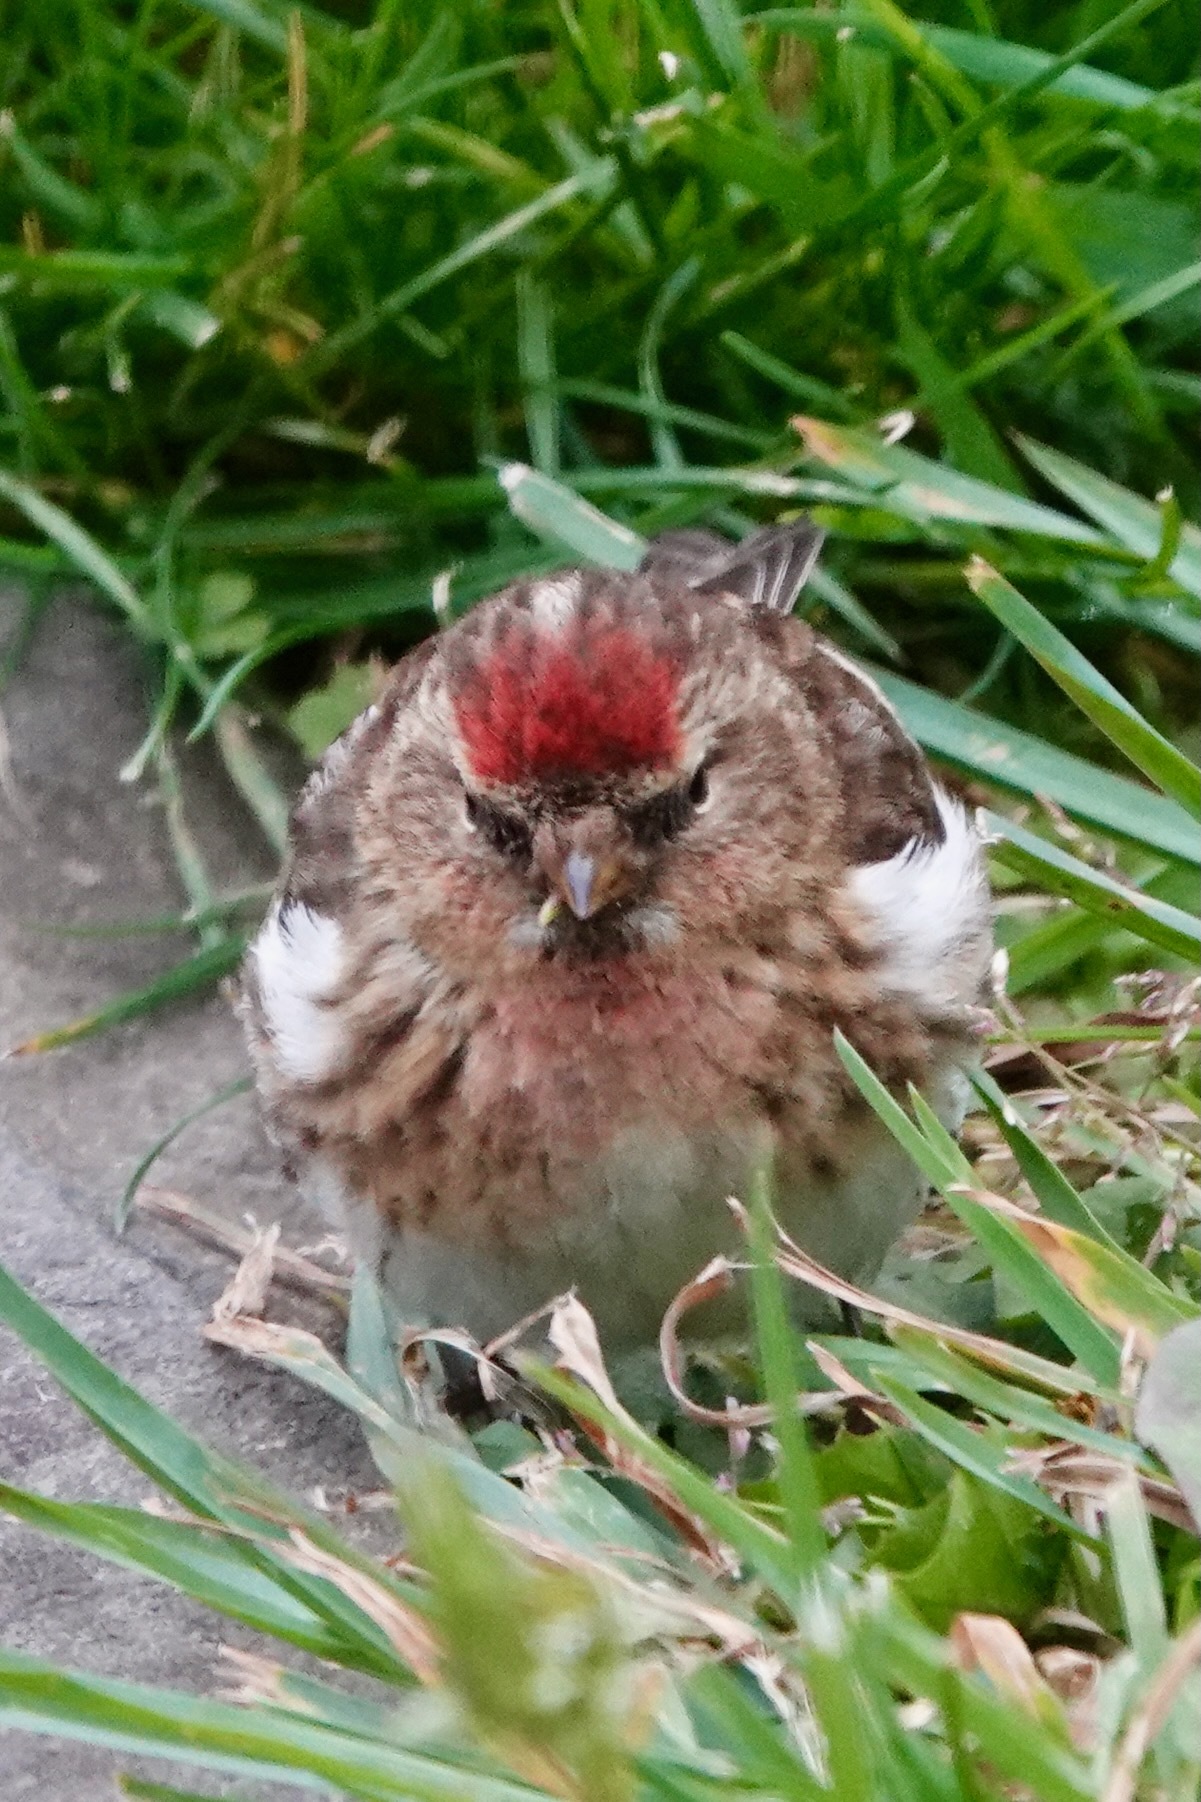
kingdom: Animalia
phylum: Chordata
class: Aves
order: Passeriformes
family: Fringillidae
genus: Acanthis
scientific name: Acanthis flammea
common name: Common redpoll
